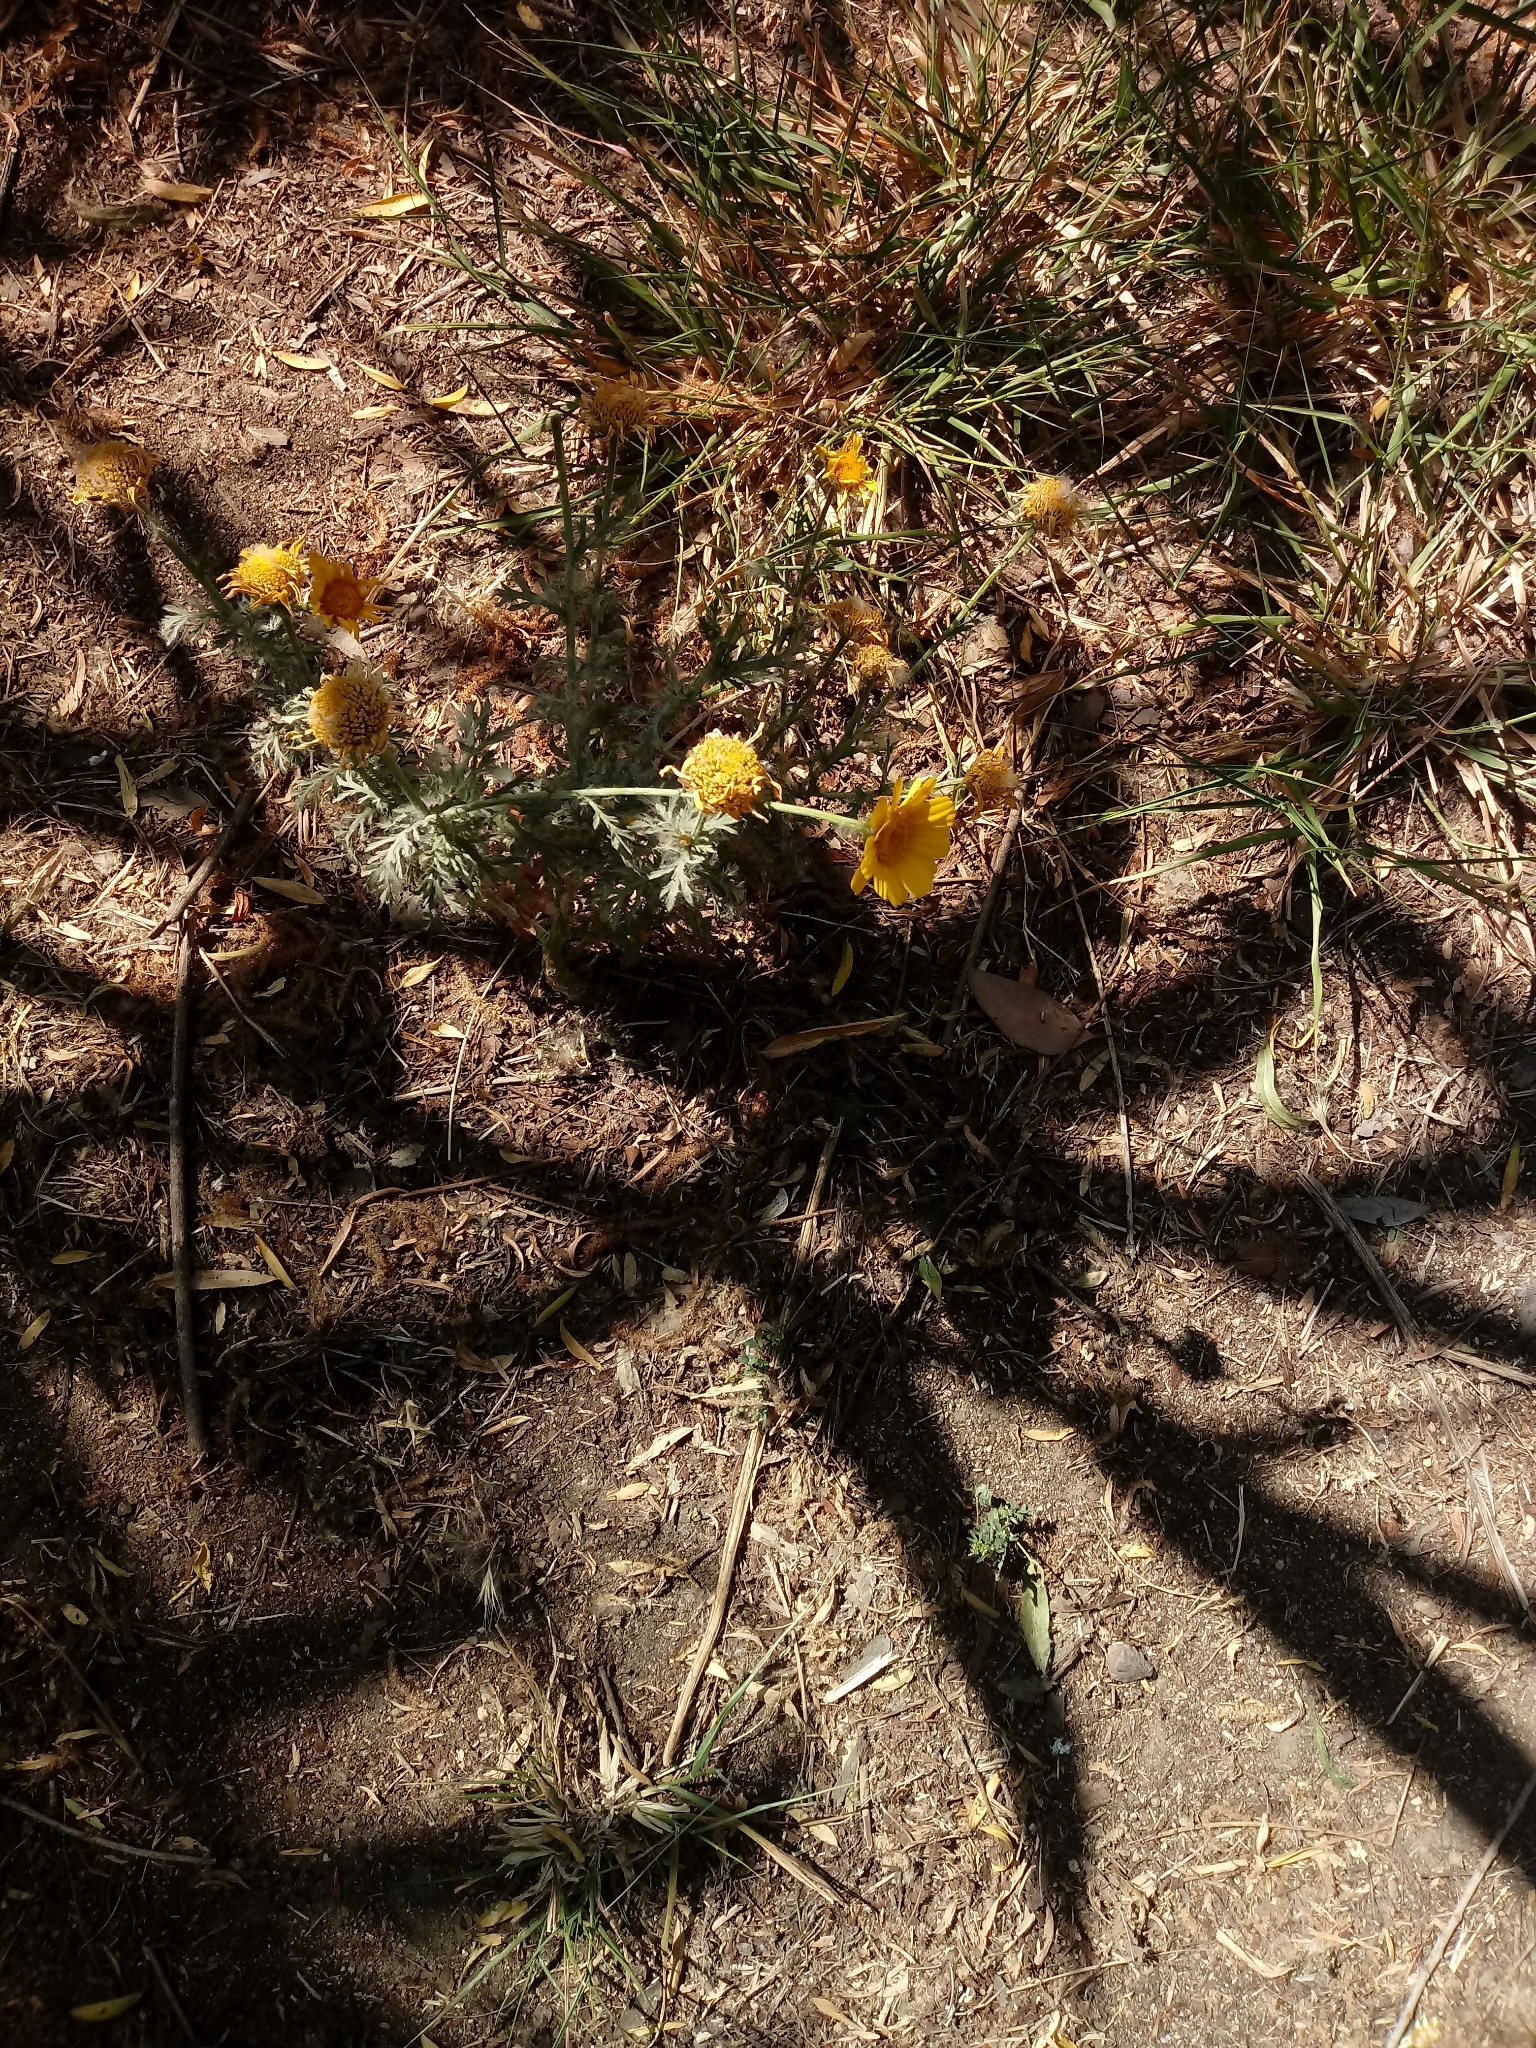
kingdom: Plantae
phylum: Tracheophyta
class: Magnoliopsida
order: Asterales
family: Asteraceae
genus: Glebionis
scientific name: Glebionis coronaria
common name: Crowndaisy
